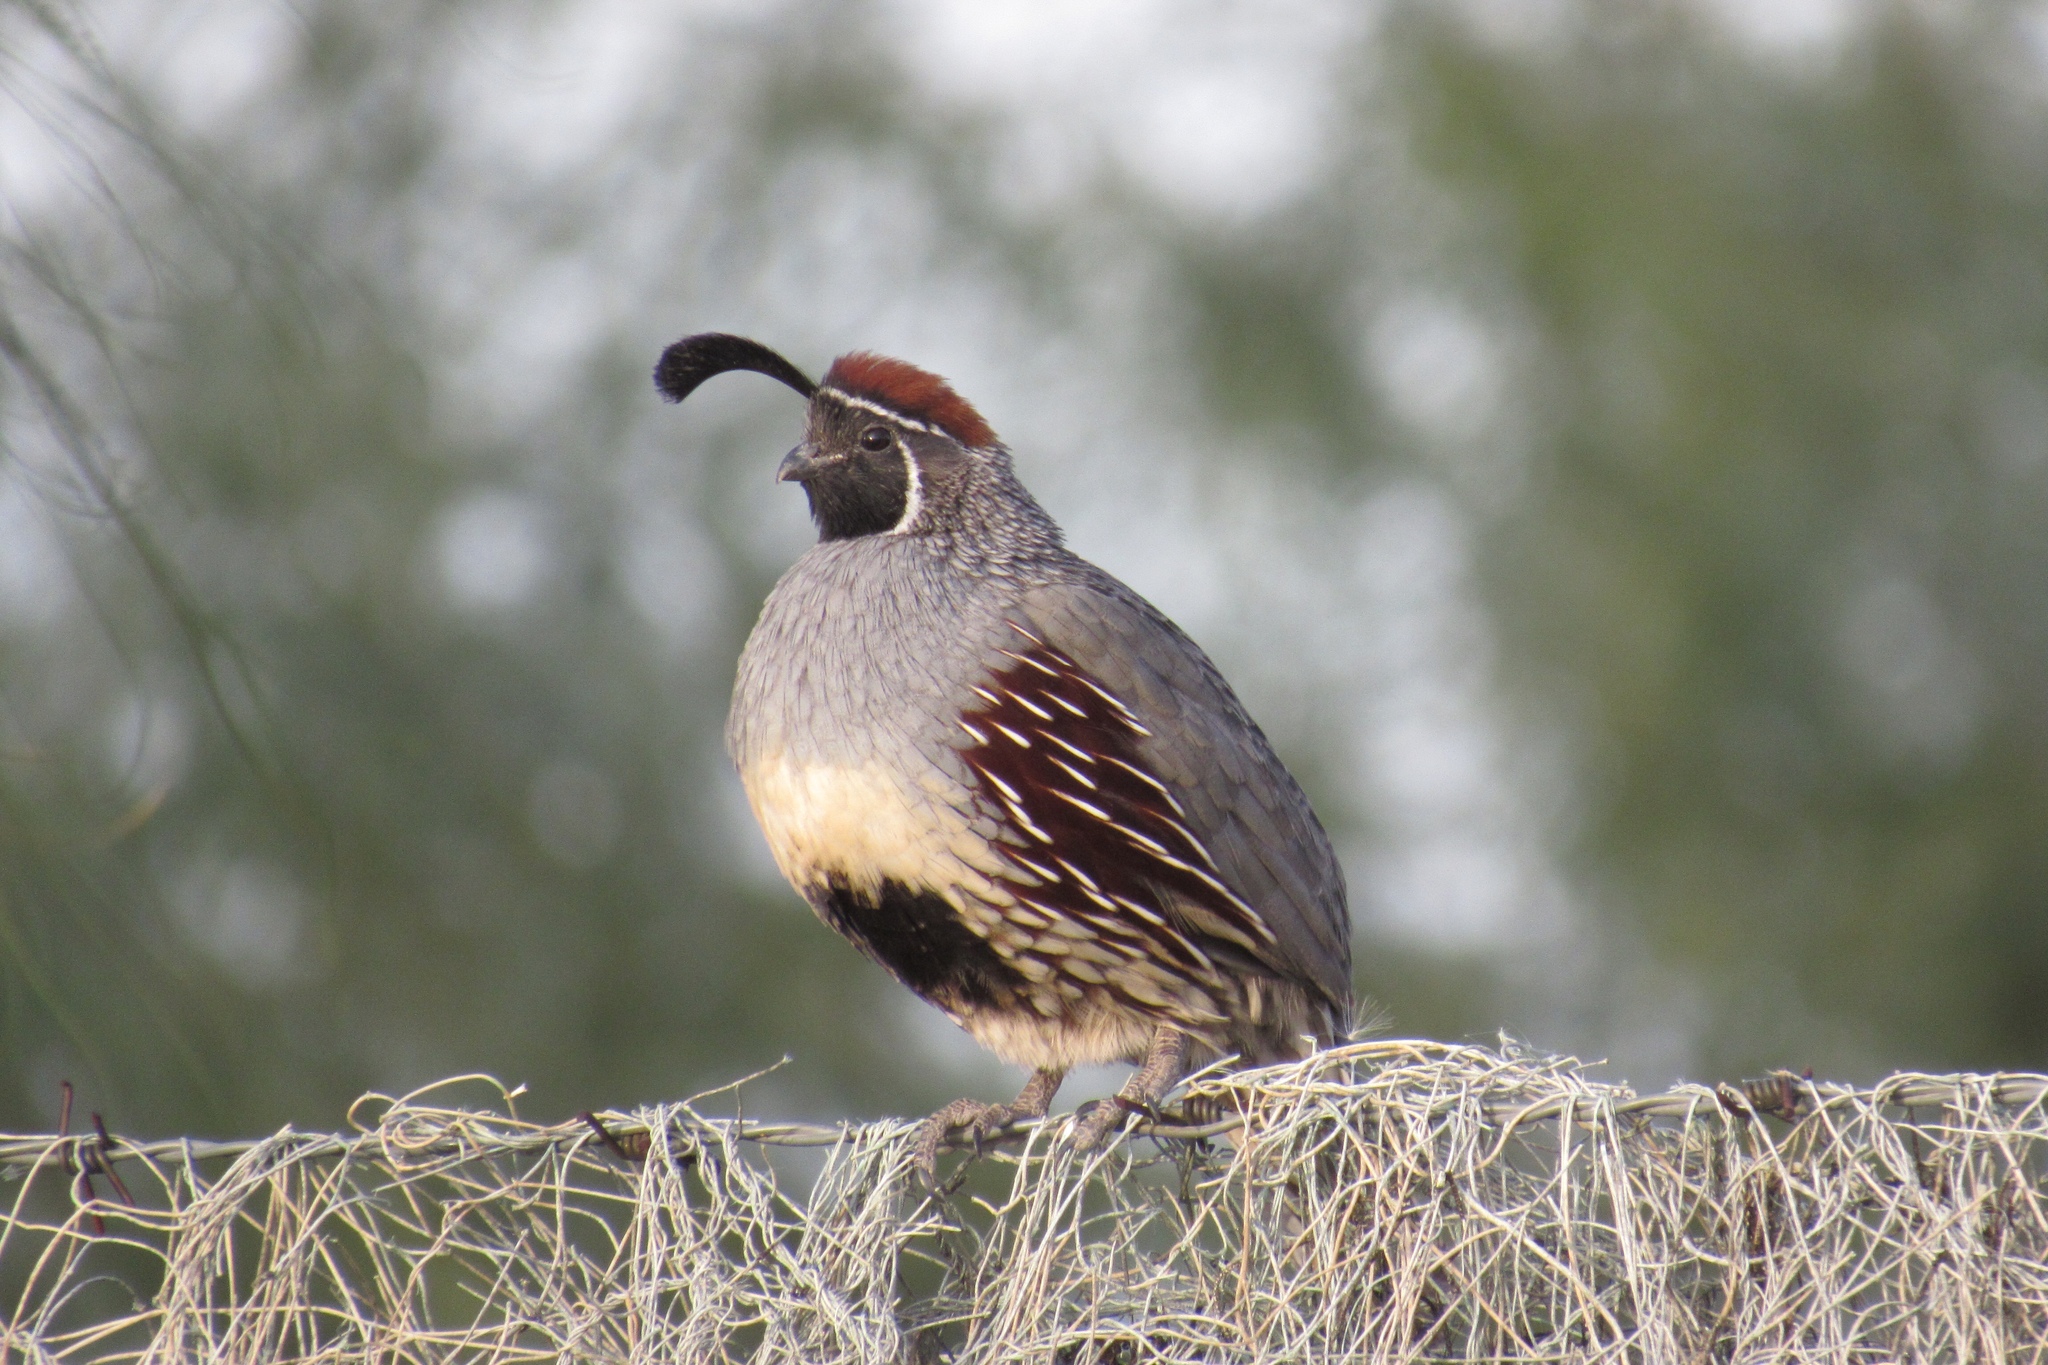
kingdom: Animalia
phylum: Chordata
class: Aves
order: Galliformes
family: Odontophoridae
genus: Callipepla
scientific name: Callipepla gambelii
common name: Gambel's quail
